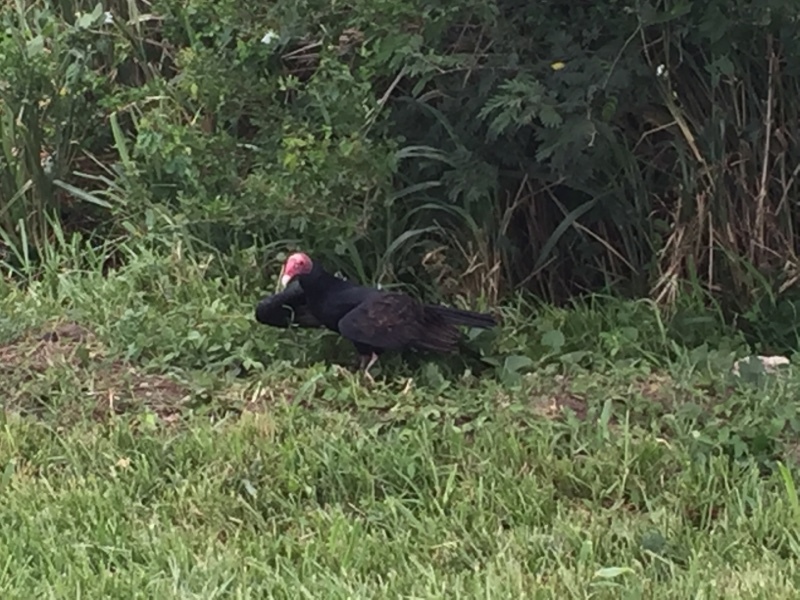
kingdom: Animalia
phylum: Chordata
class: Aves
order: Accipitriformes
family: Cathartidae
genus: Cathartes
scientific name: Cathartes aura
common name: Turkey vulture
